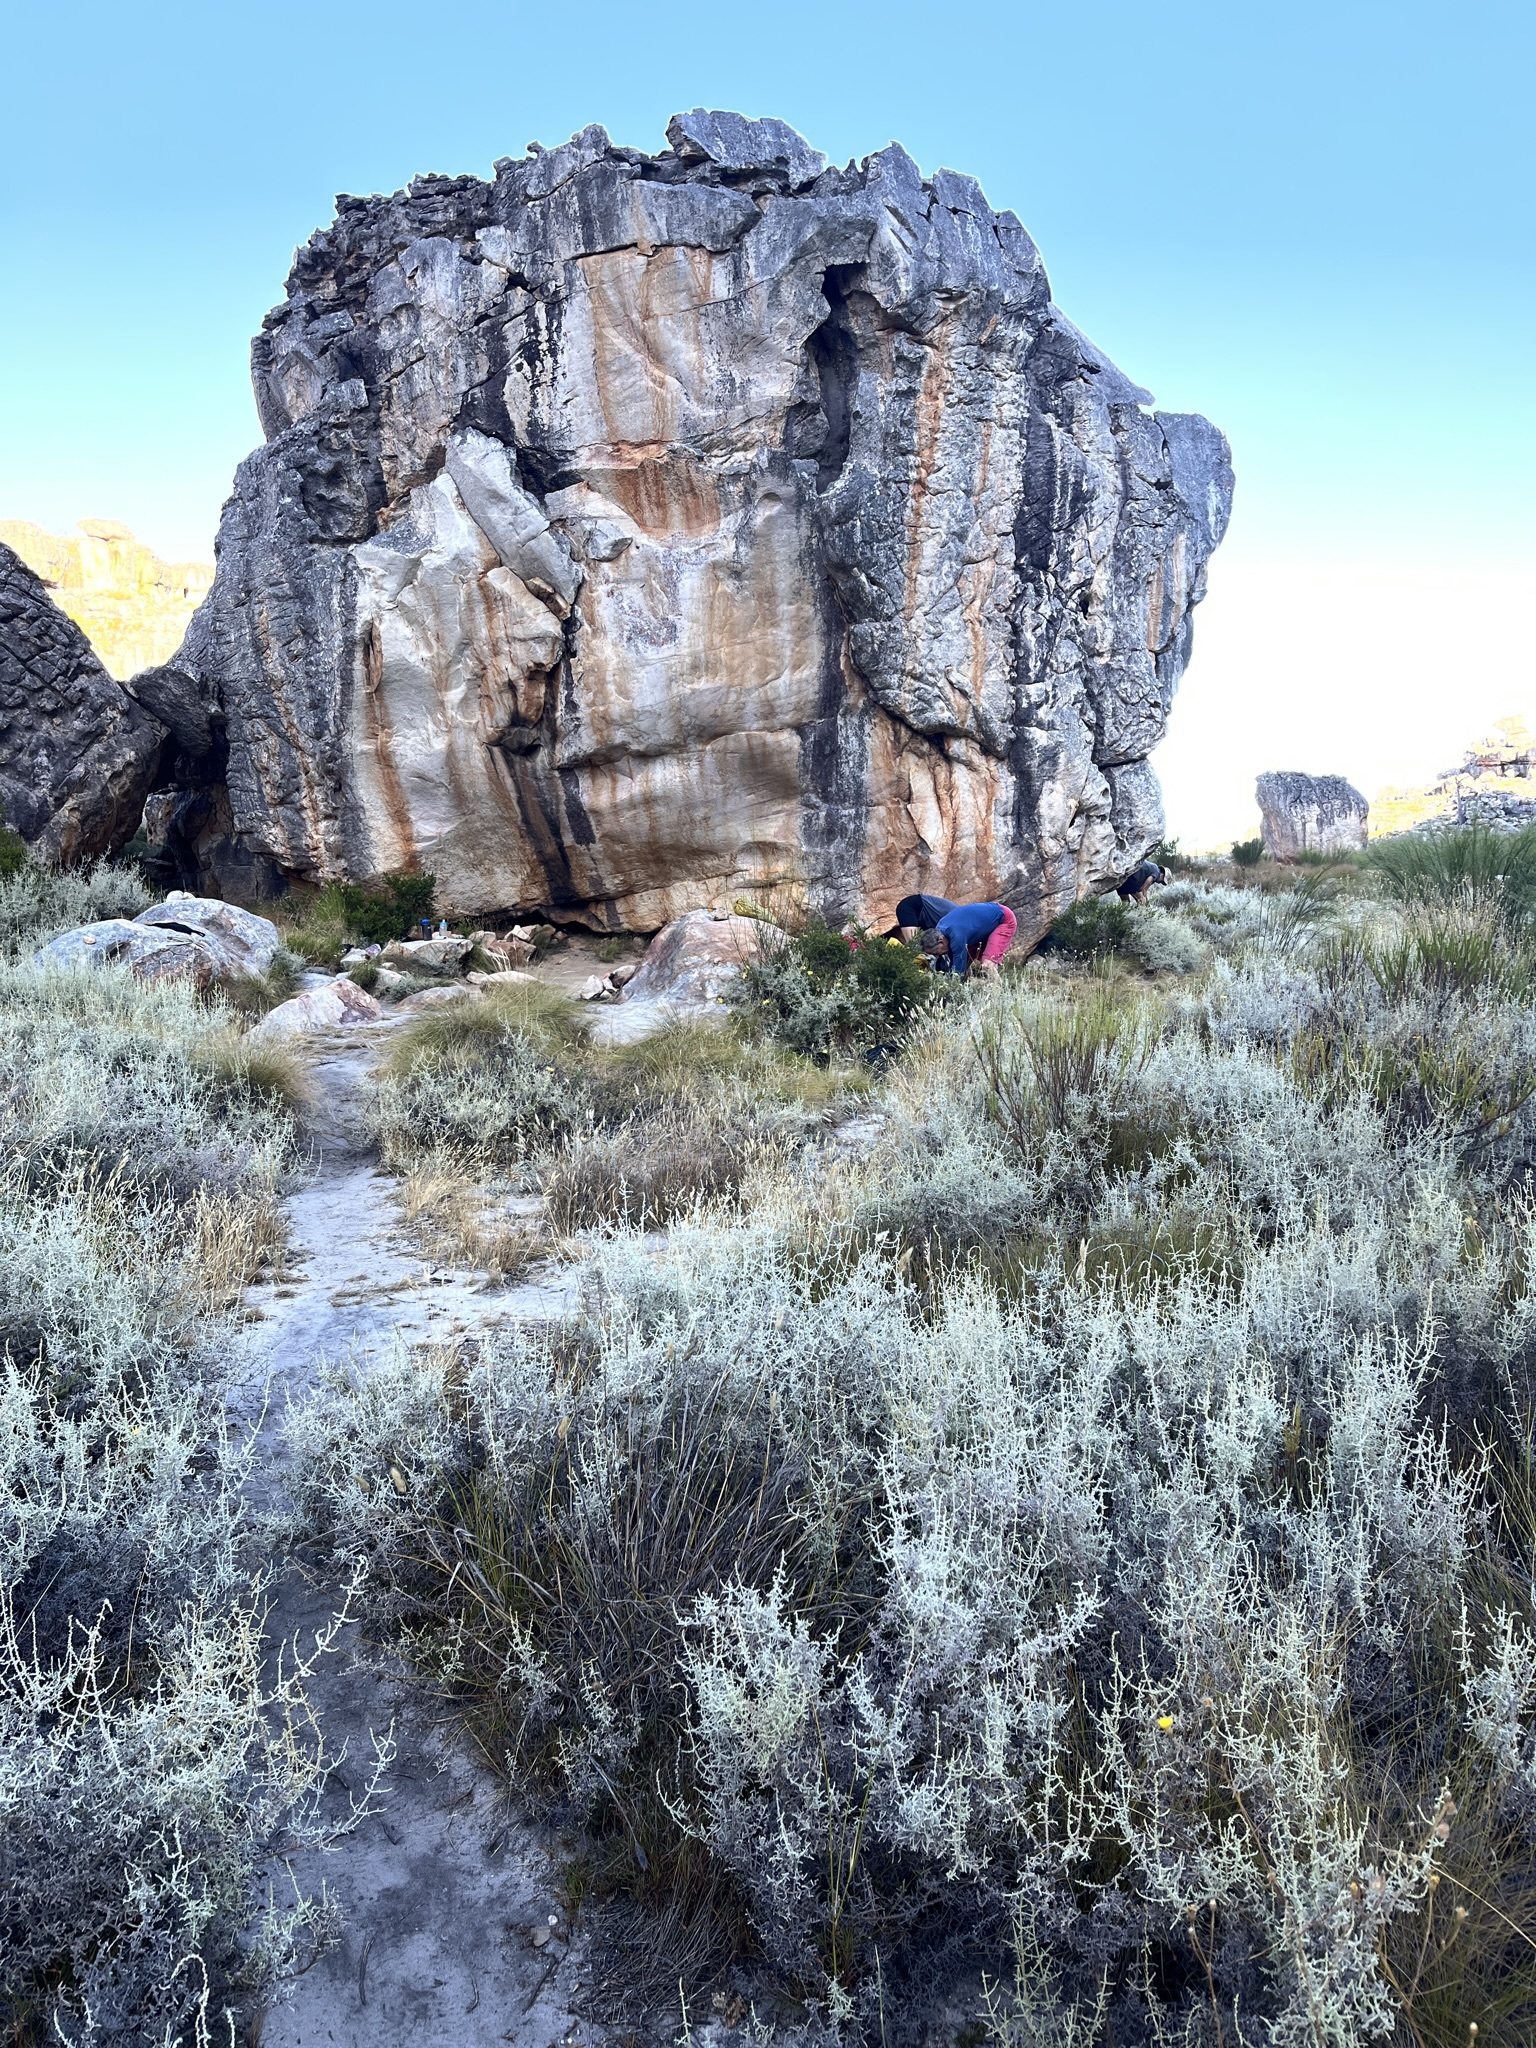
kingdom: Plantae
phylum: Tracheophyta
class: Magnoliopsida
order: Asterales
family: Asteraceae
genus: Seriphium
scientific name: Seriphium plumosum
